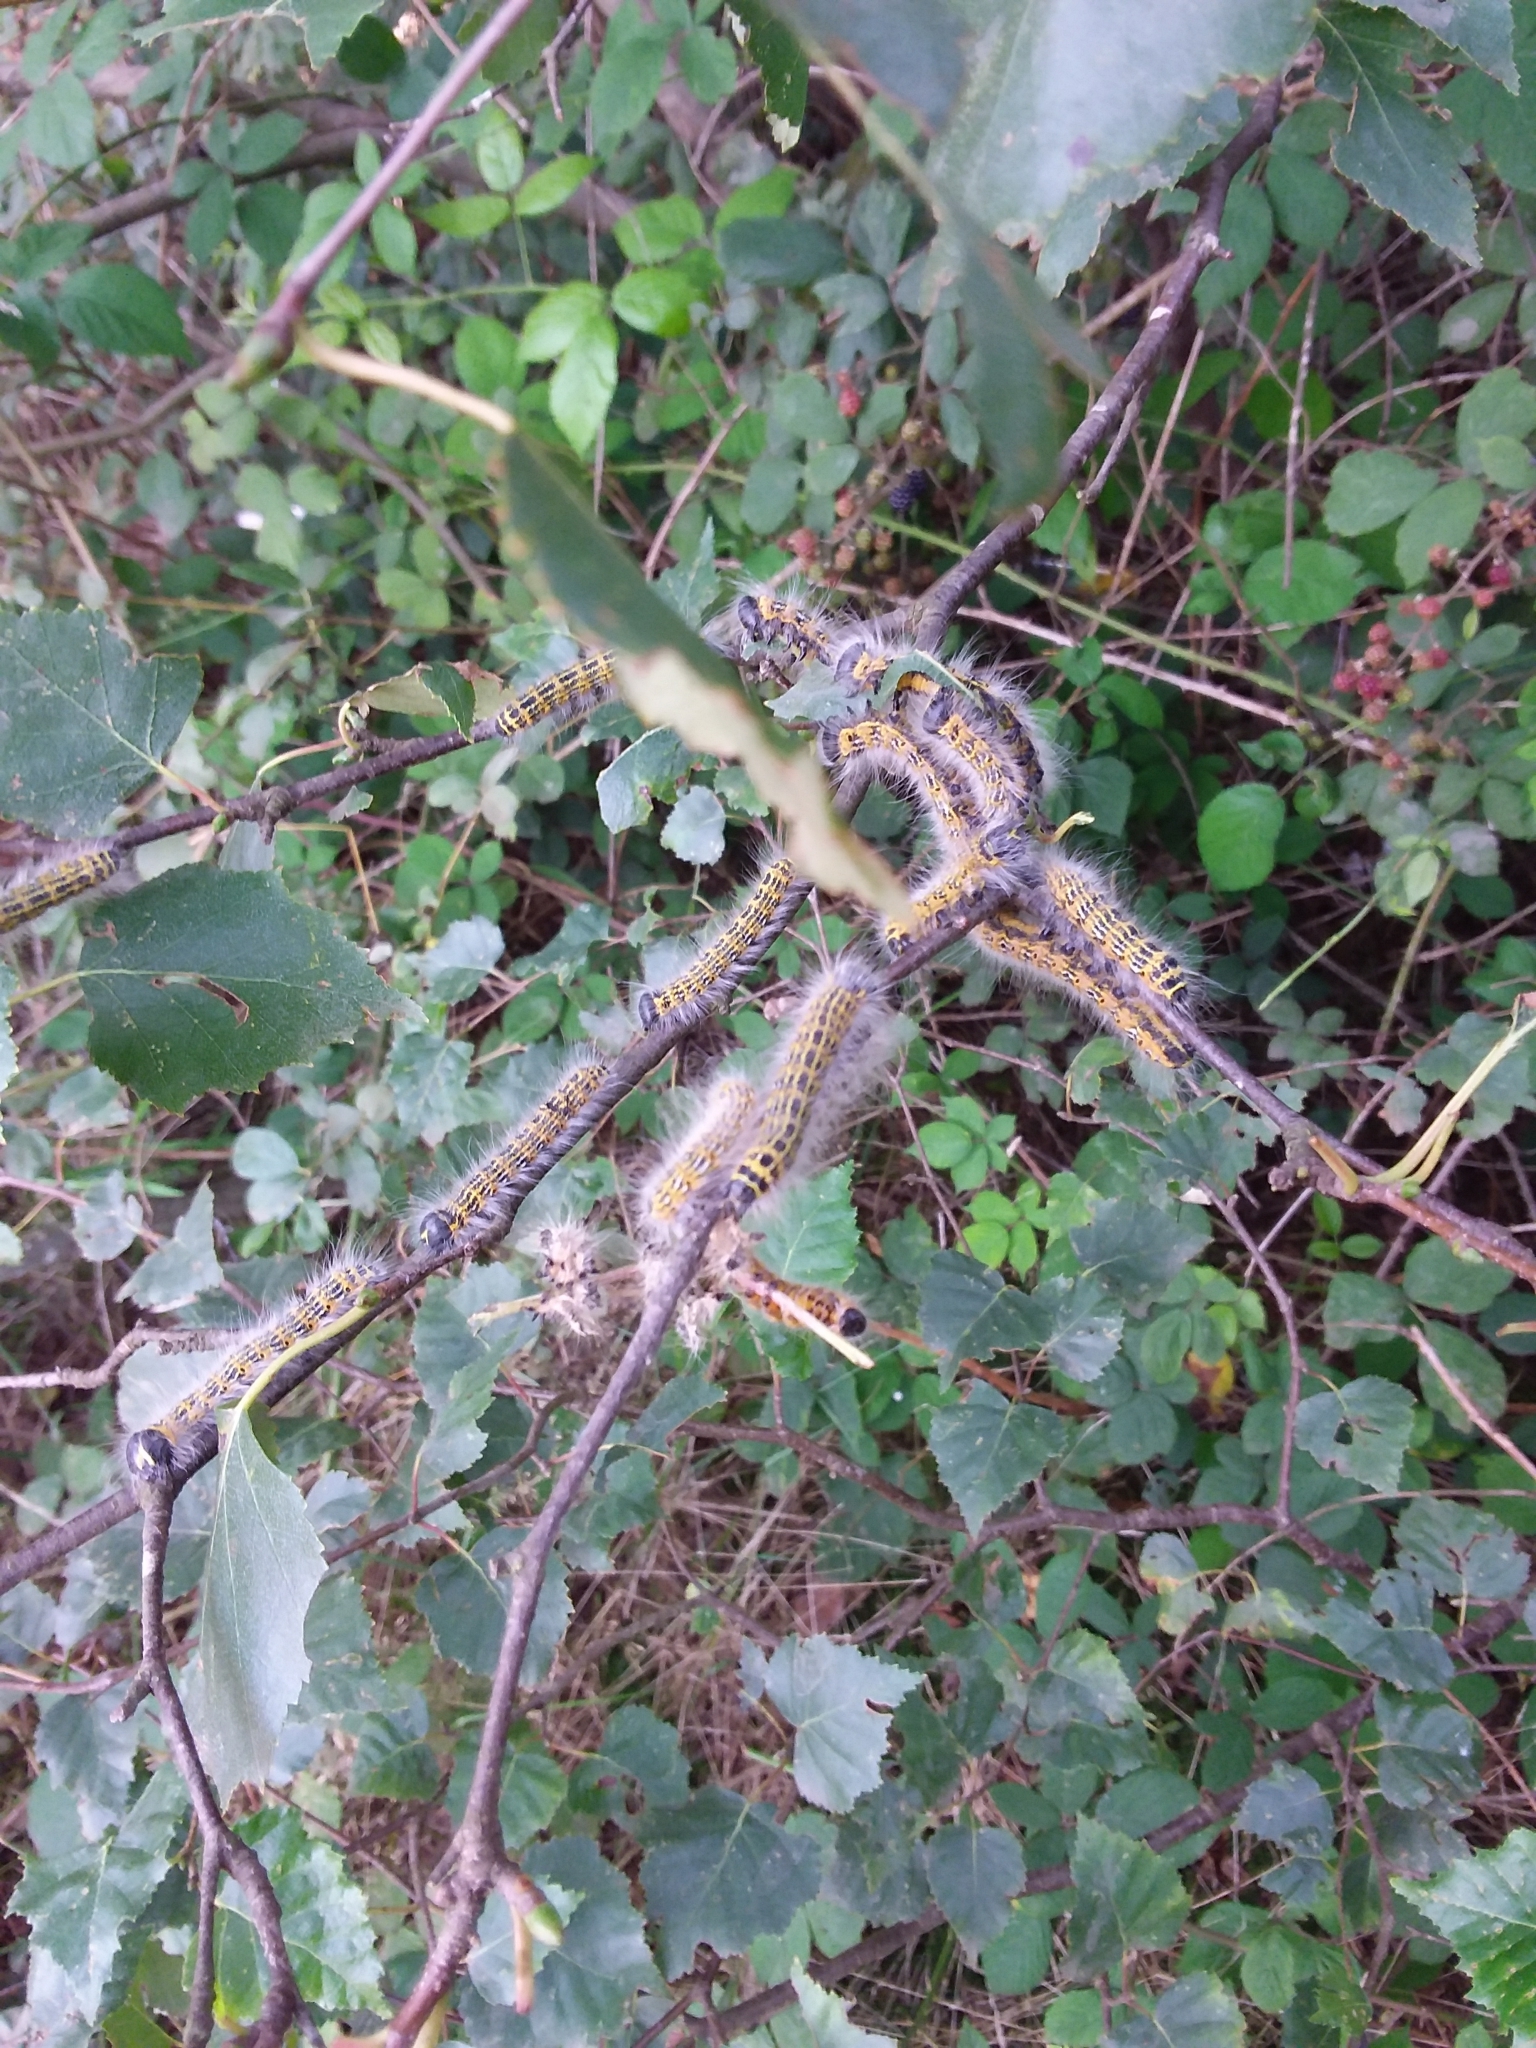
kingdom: Animalia
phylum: Arthropoda
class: Insecta
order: Lepidoptera
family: Notodontidae
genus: Phalera
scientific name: Phalera bucephala
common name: Buff-tip
